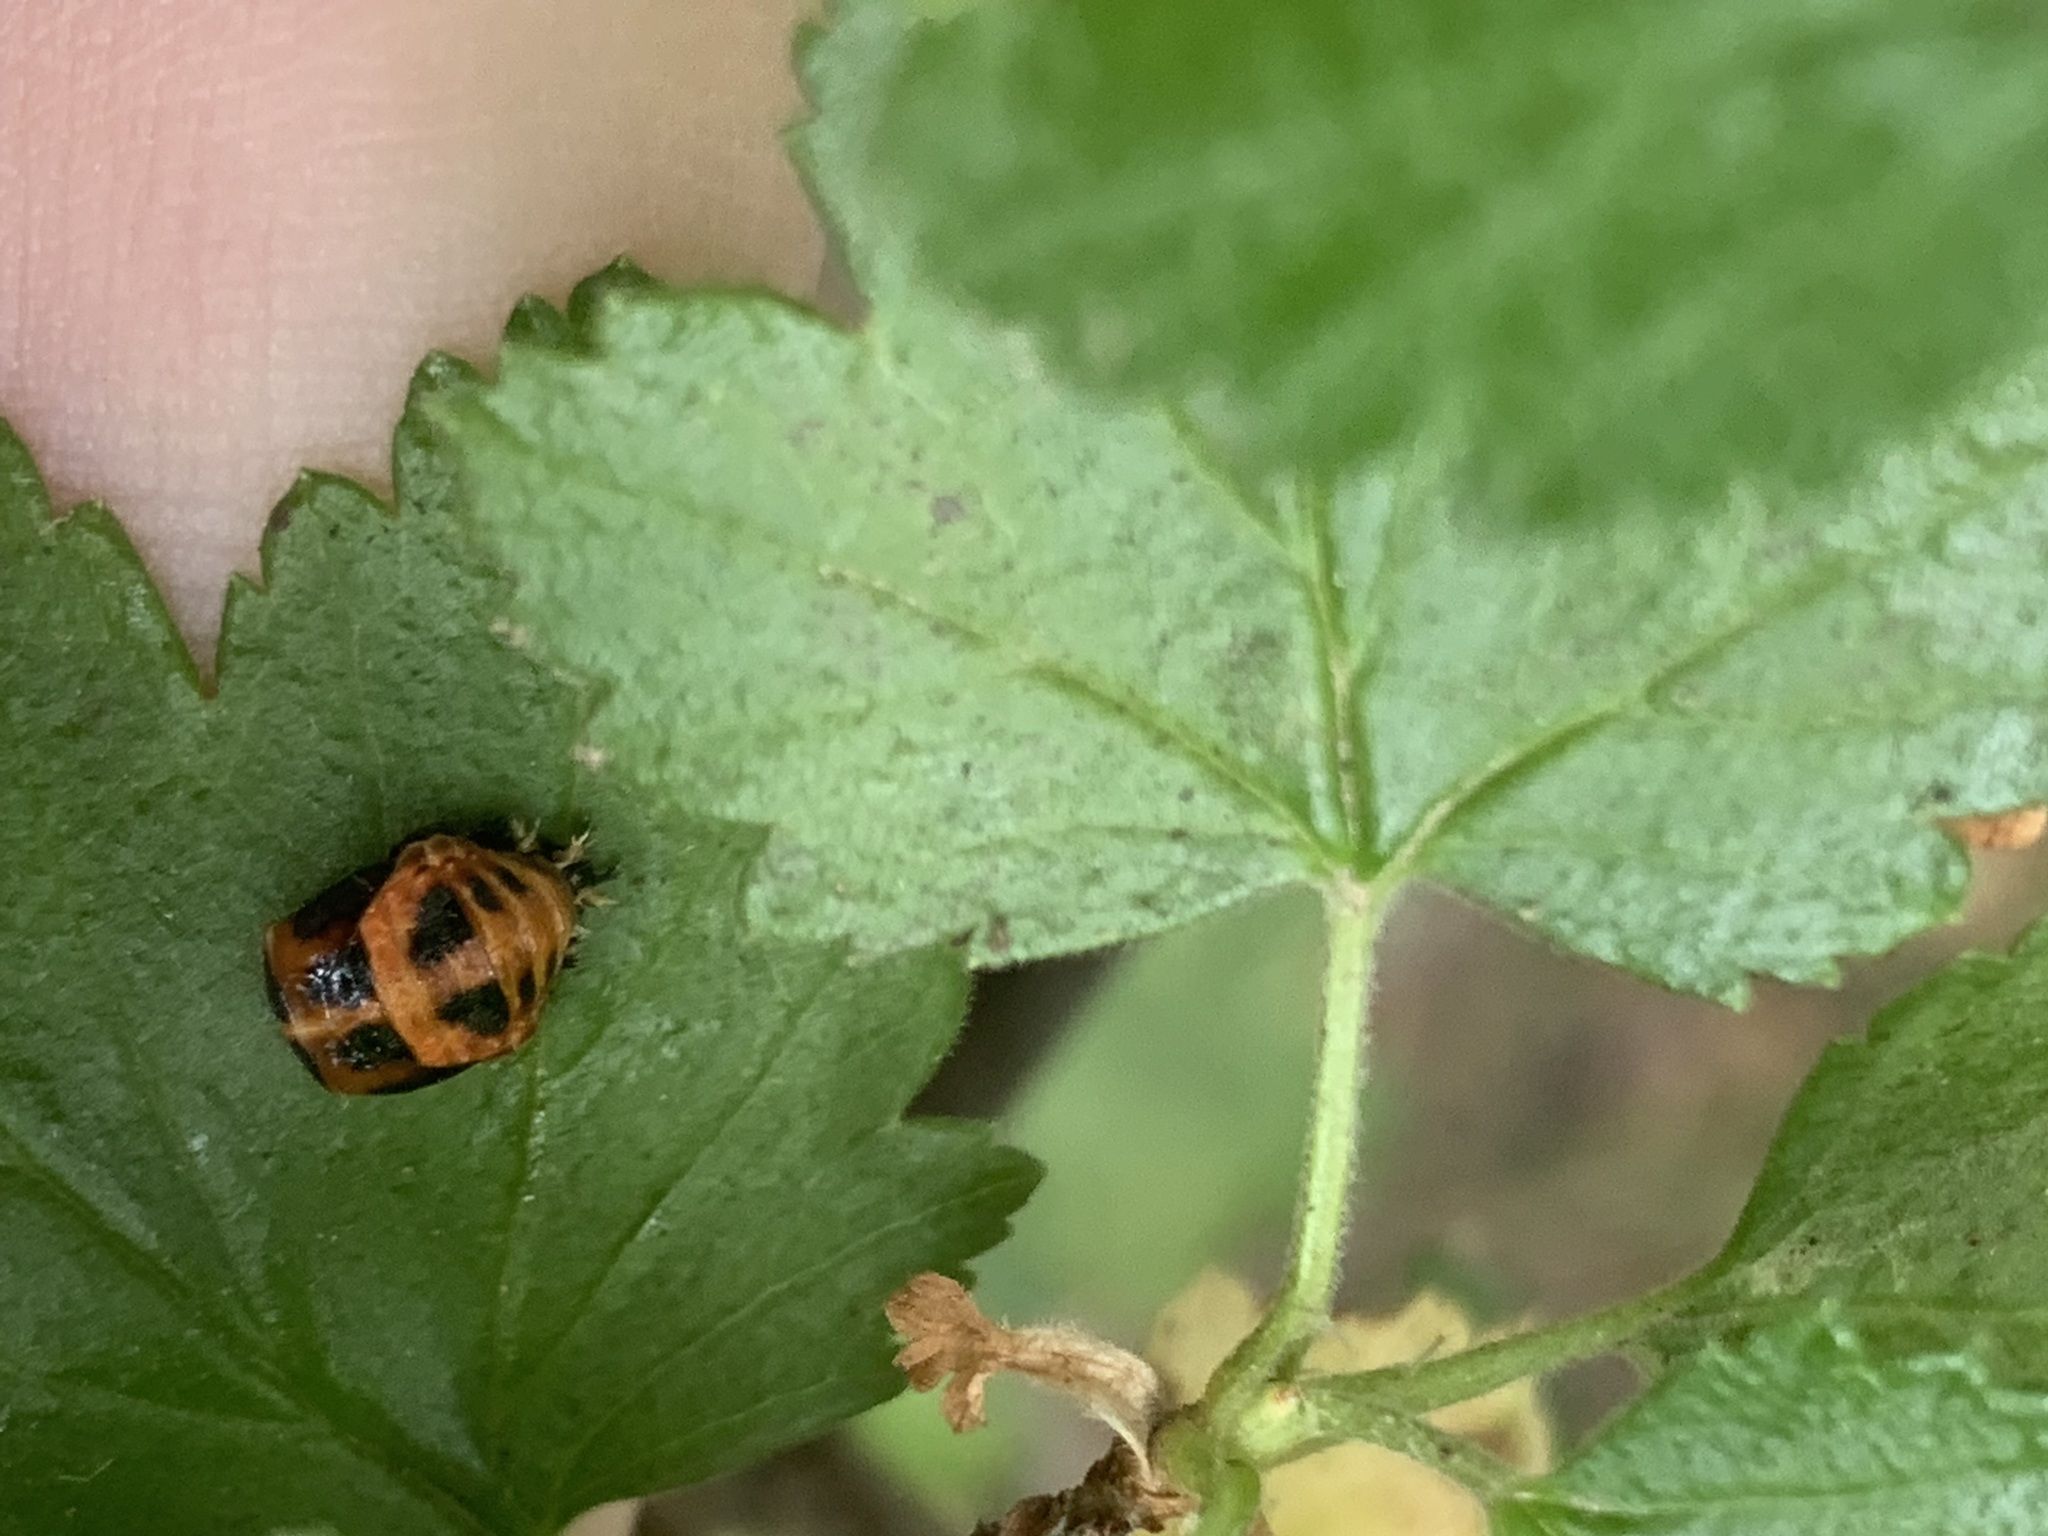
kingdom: Animalia
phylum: Arthropoda
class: Insecta
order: Coleoptera
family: Coccinellidae
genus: Harmonia
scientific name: Harmonia axyridis
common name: Harlequin ladybird
